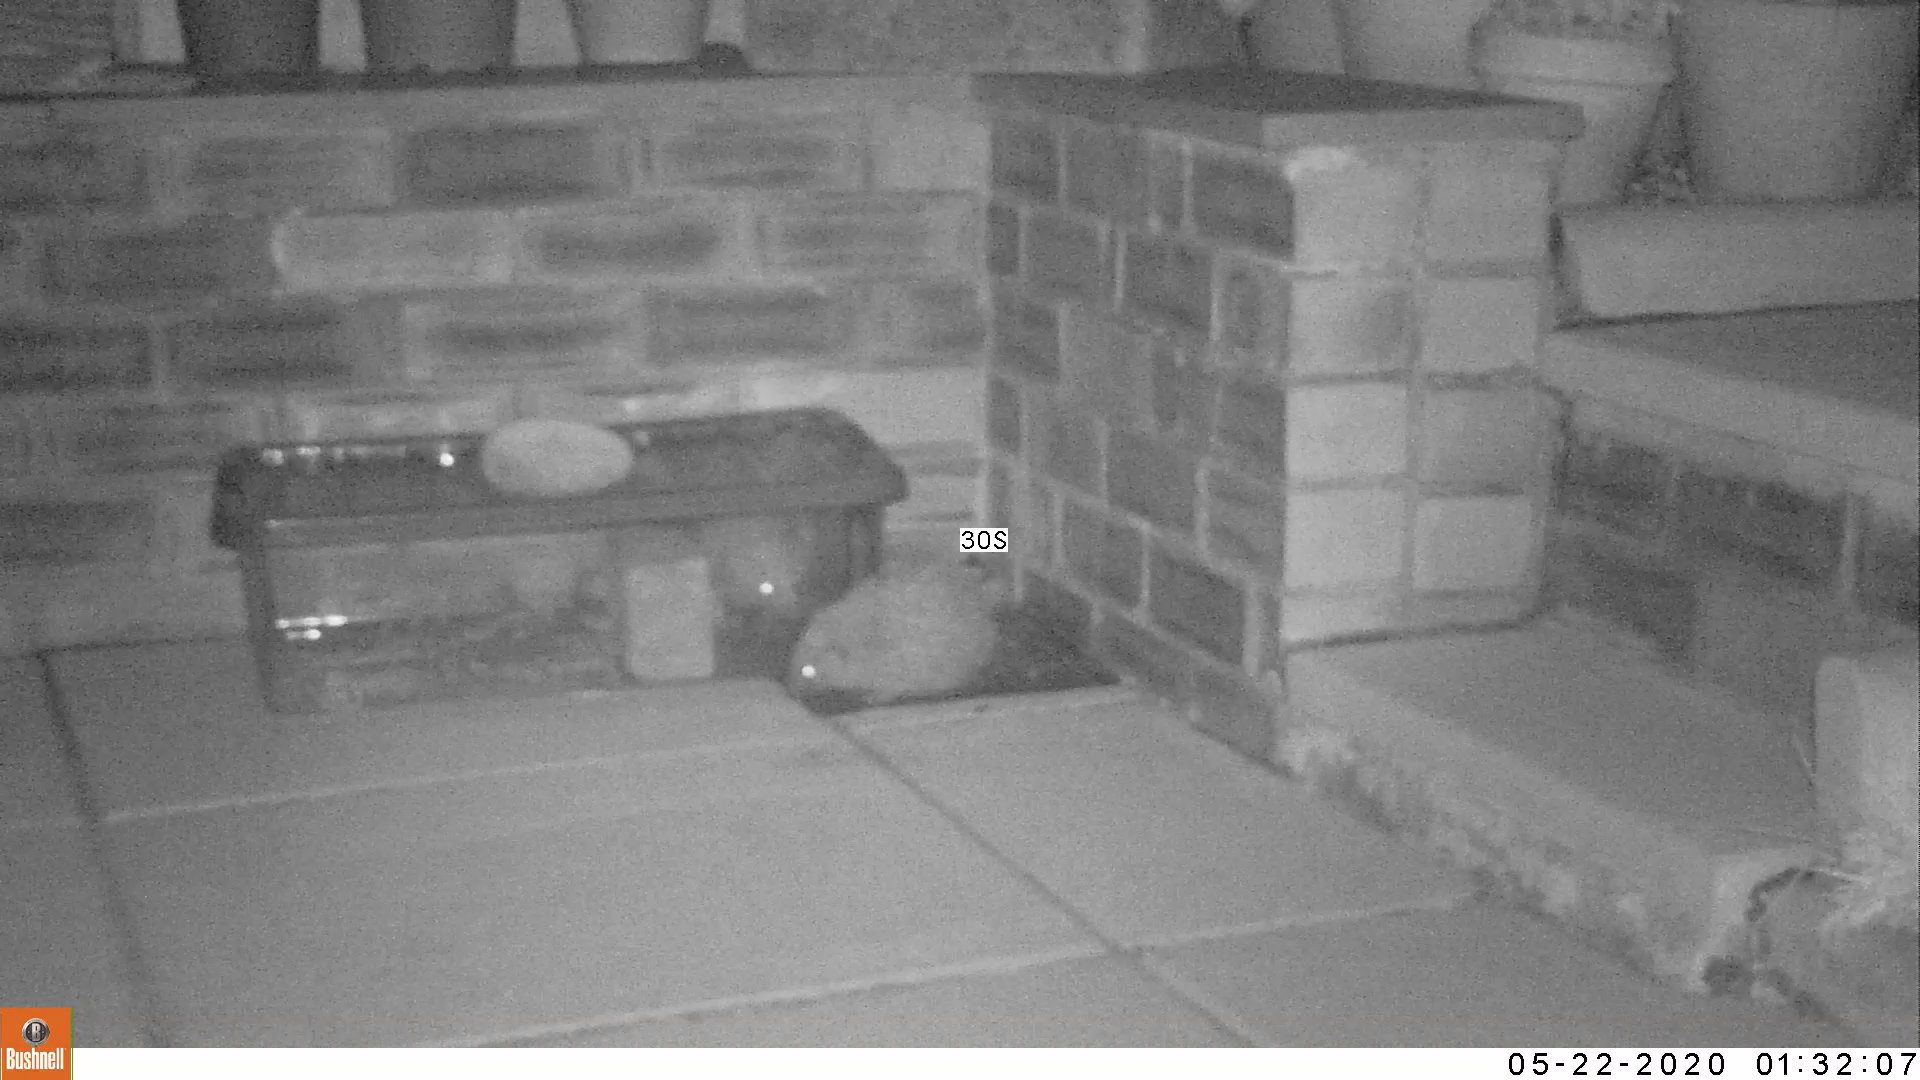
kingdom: Animalia
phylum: Chordata
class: Mammalia
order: Erinaceomorpha
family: Erinaceidae
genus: Erinaceus
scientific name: Erinaceus europaeus
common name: West european hedgehog
